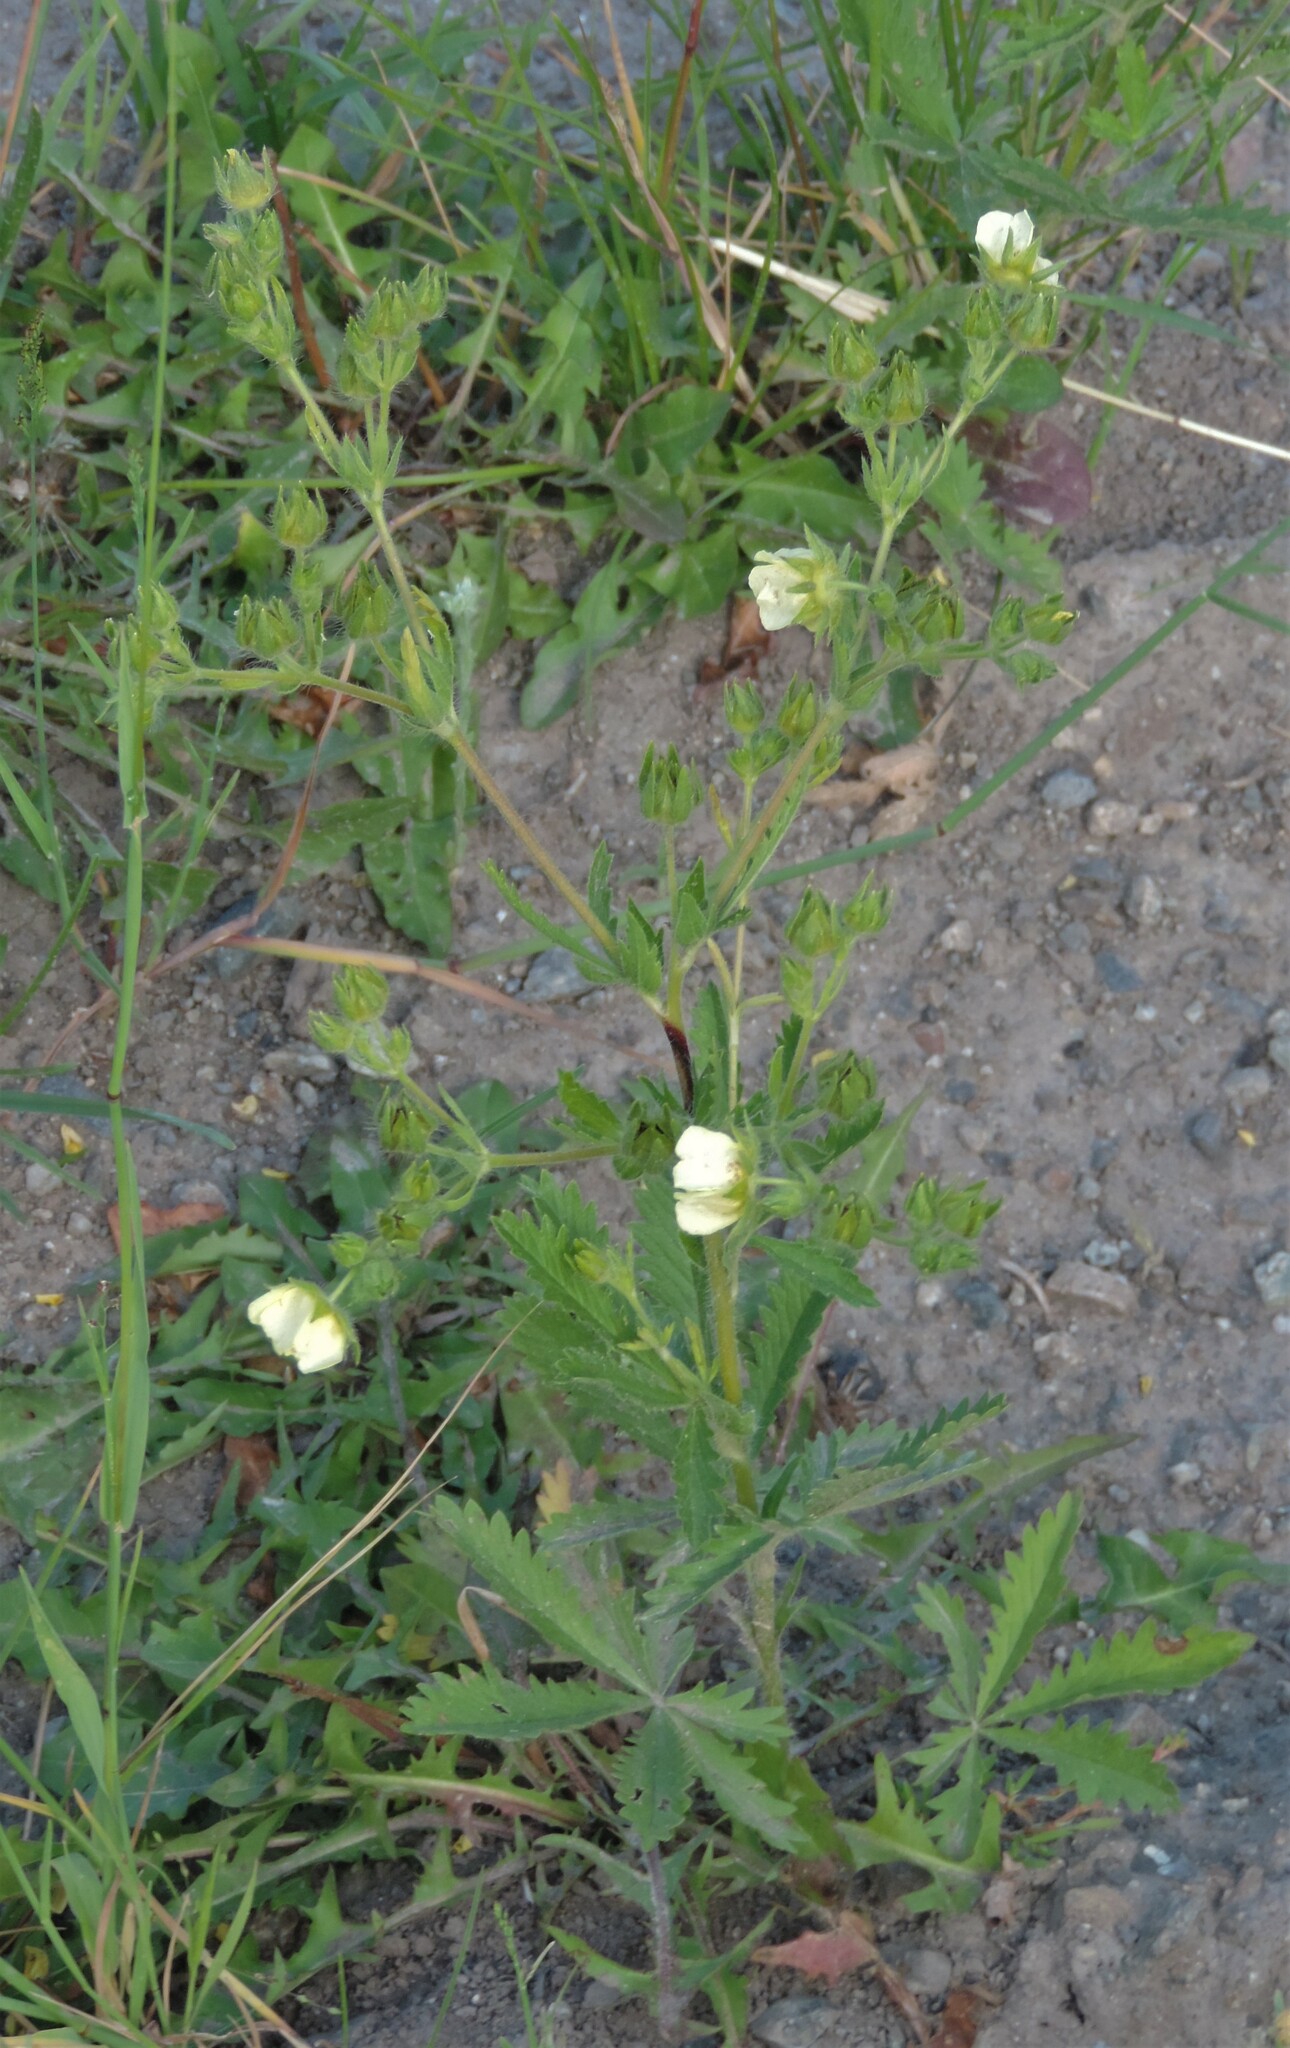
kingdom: Plantae
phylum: Tracheophyta
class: Magnoliopsida
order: Rosales
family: Rosaceae
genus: Potentilla
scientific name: Potentilla recta
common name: Sulphur cinquefoil
